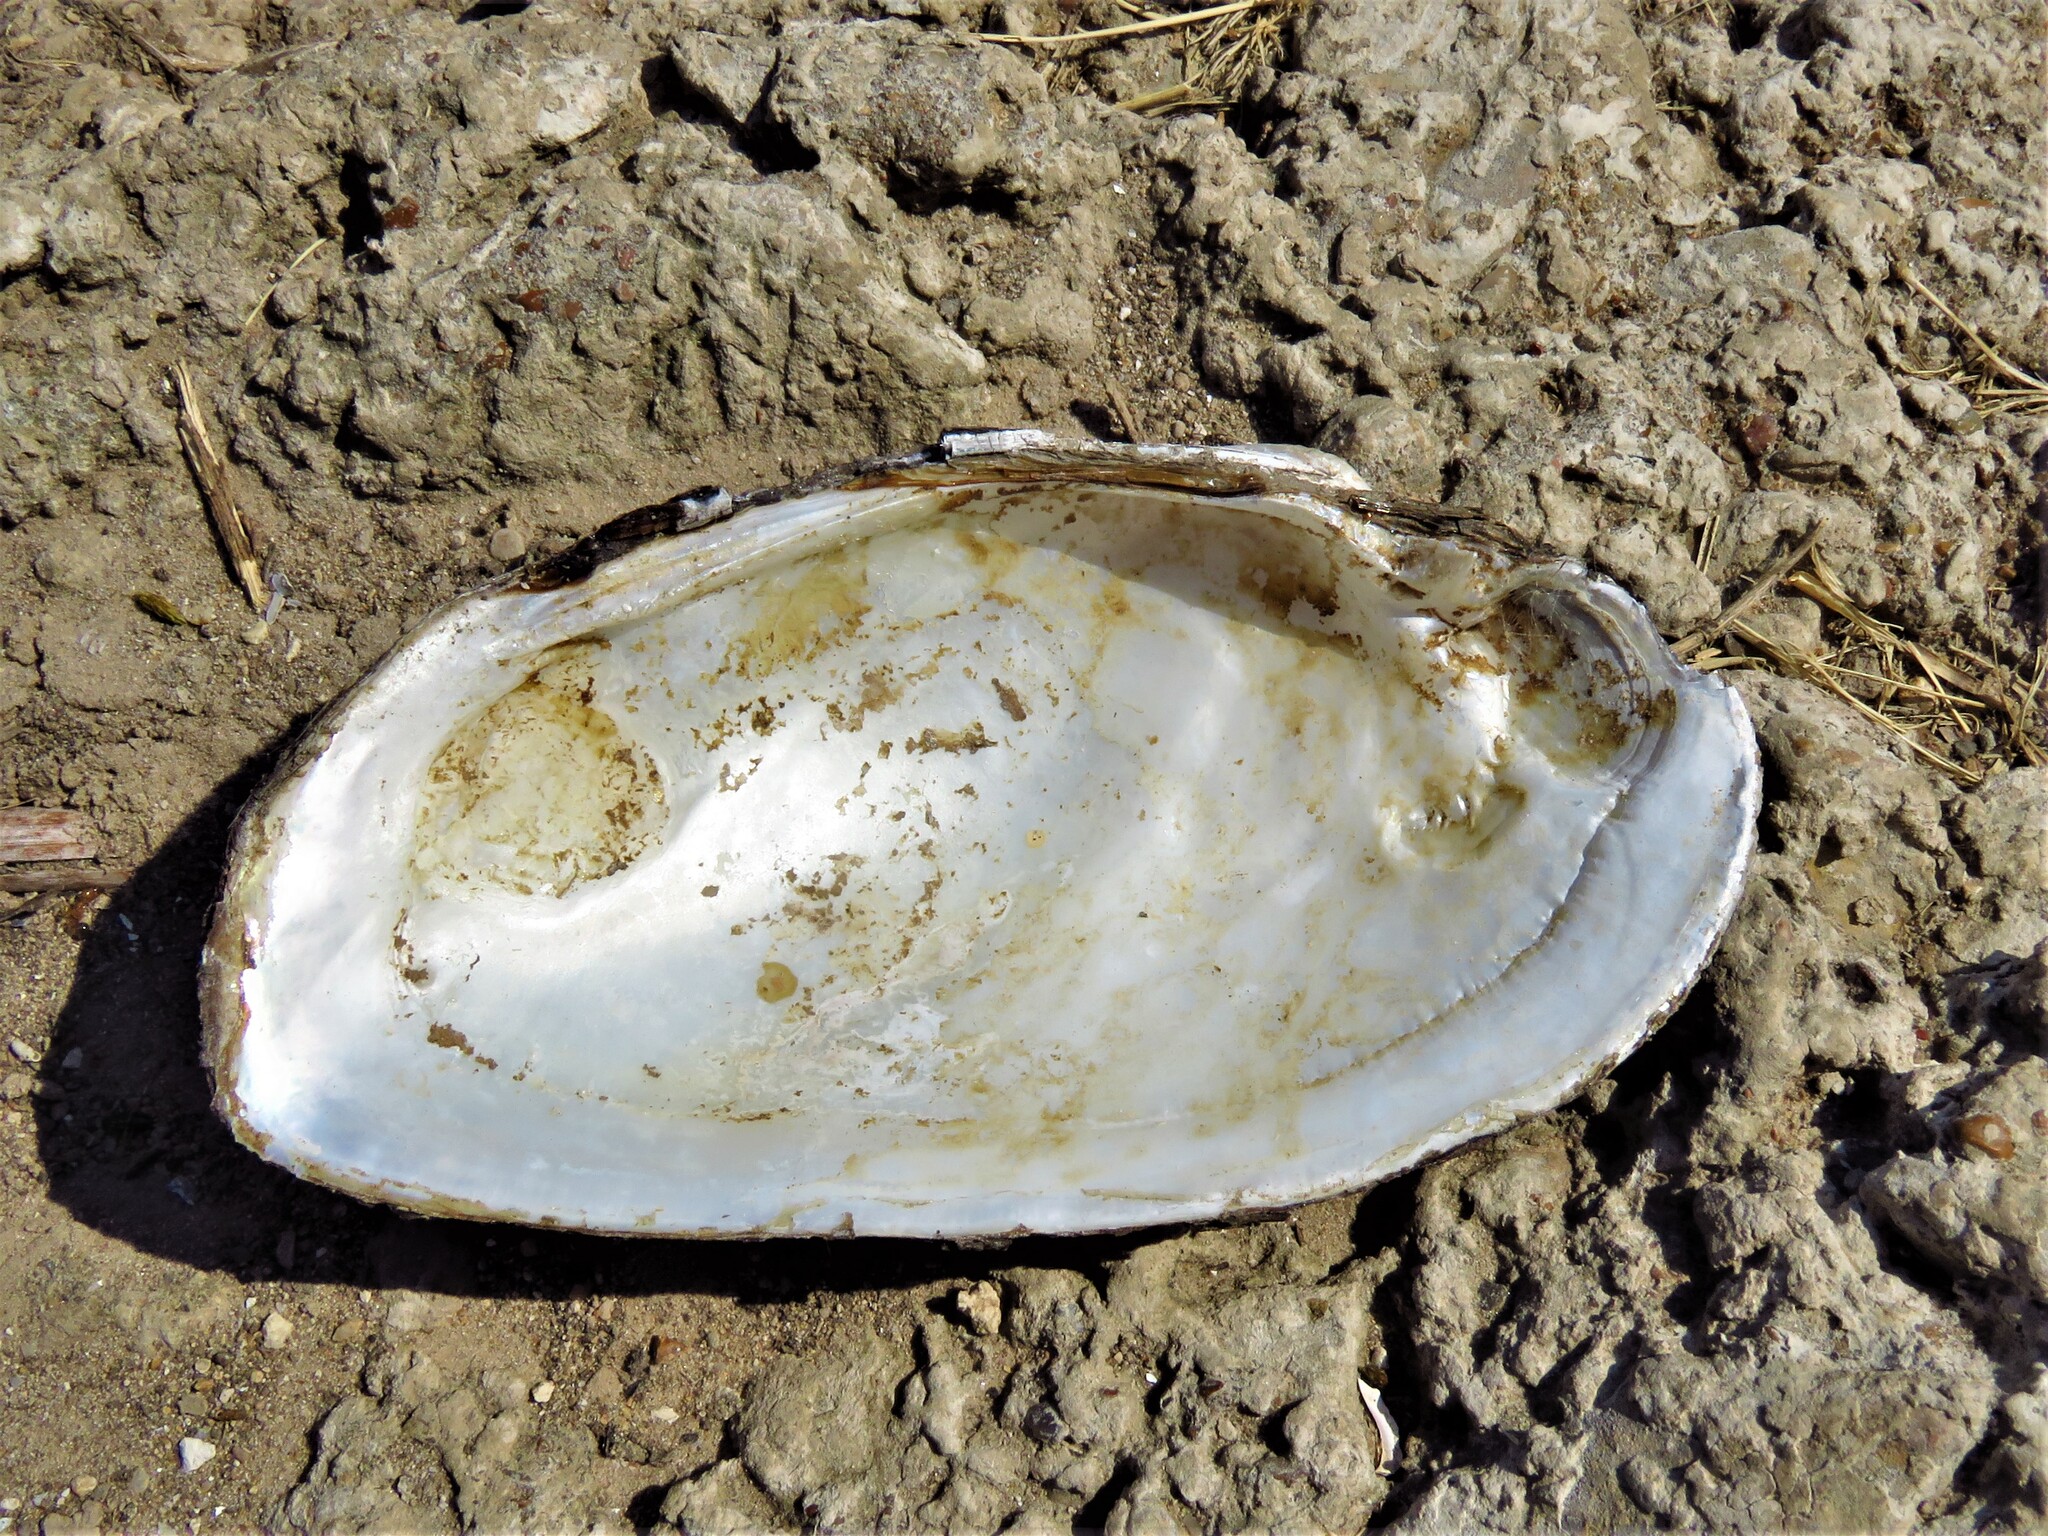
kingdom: Animalia
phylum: Mollusca
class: Bivalvia
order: Unionida
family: Unionidae
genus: Uniomerus
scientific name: Uniomerus tetralasmus
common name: Pondhorn
